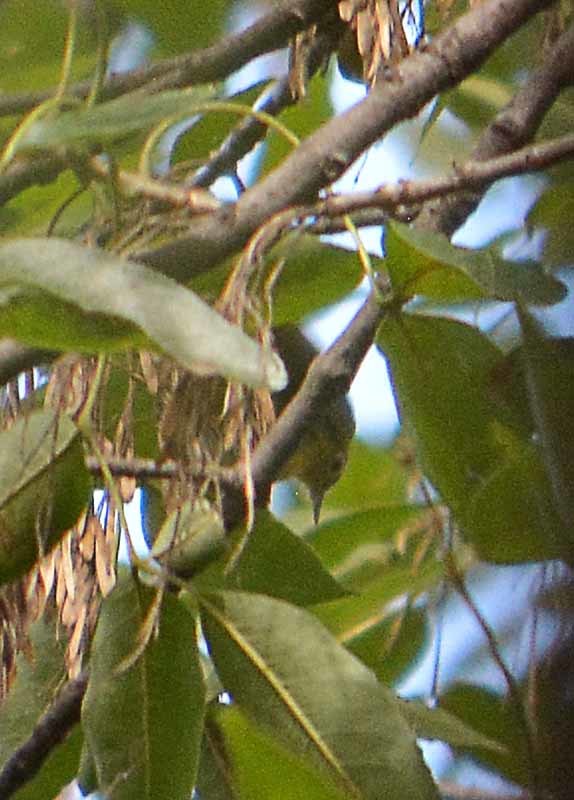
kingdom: Animalia
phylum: Chordata
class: Aves
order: Passeriformes
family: Parulidae
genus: Leiothlypis
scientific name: Leiothlypis ruficapilla
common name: Nashville warbler
